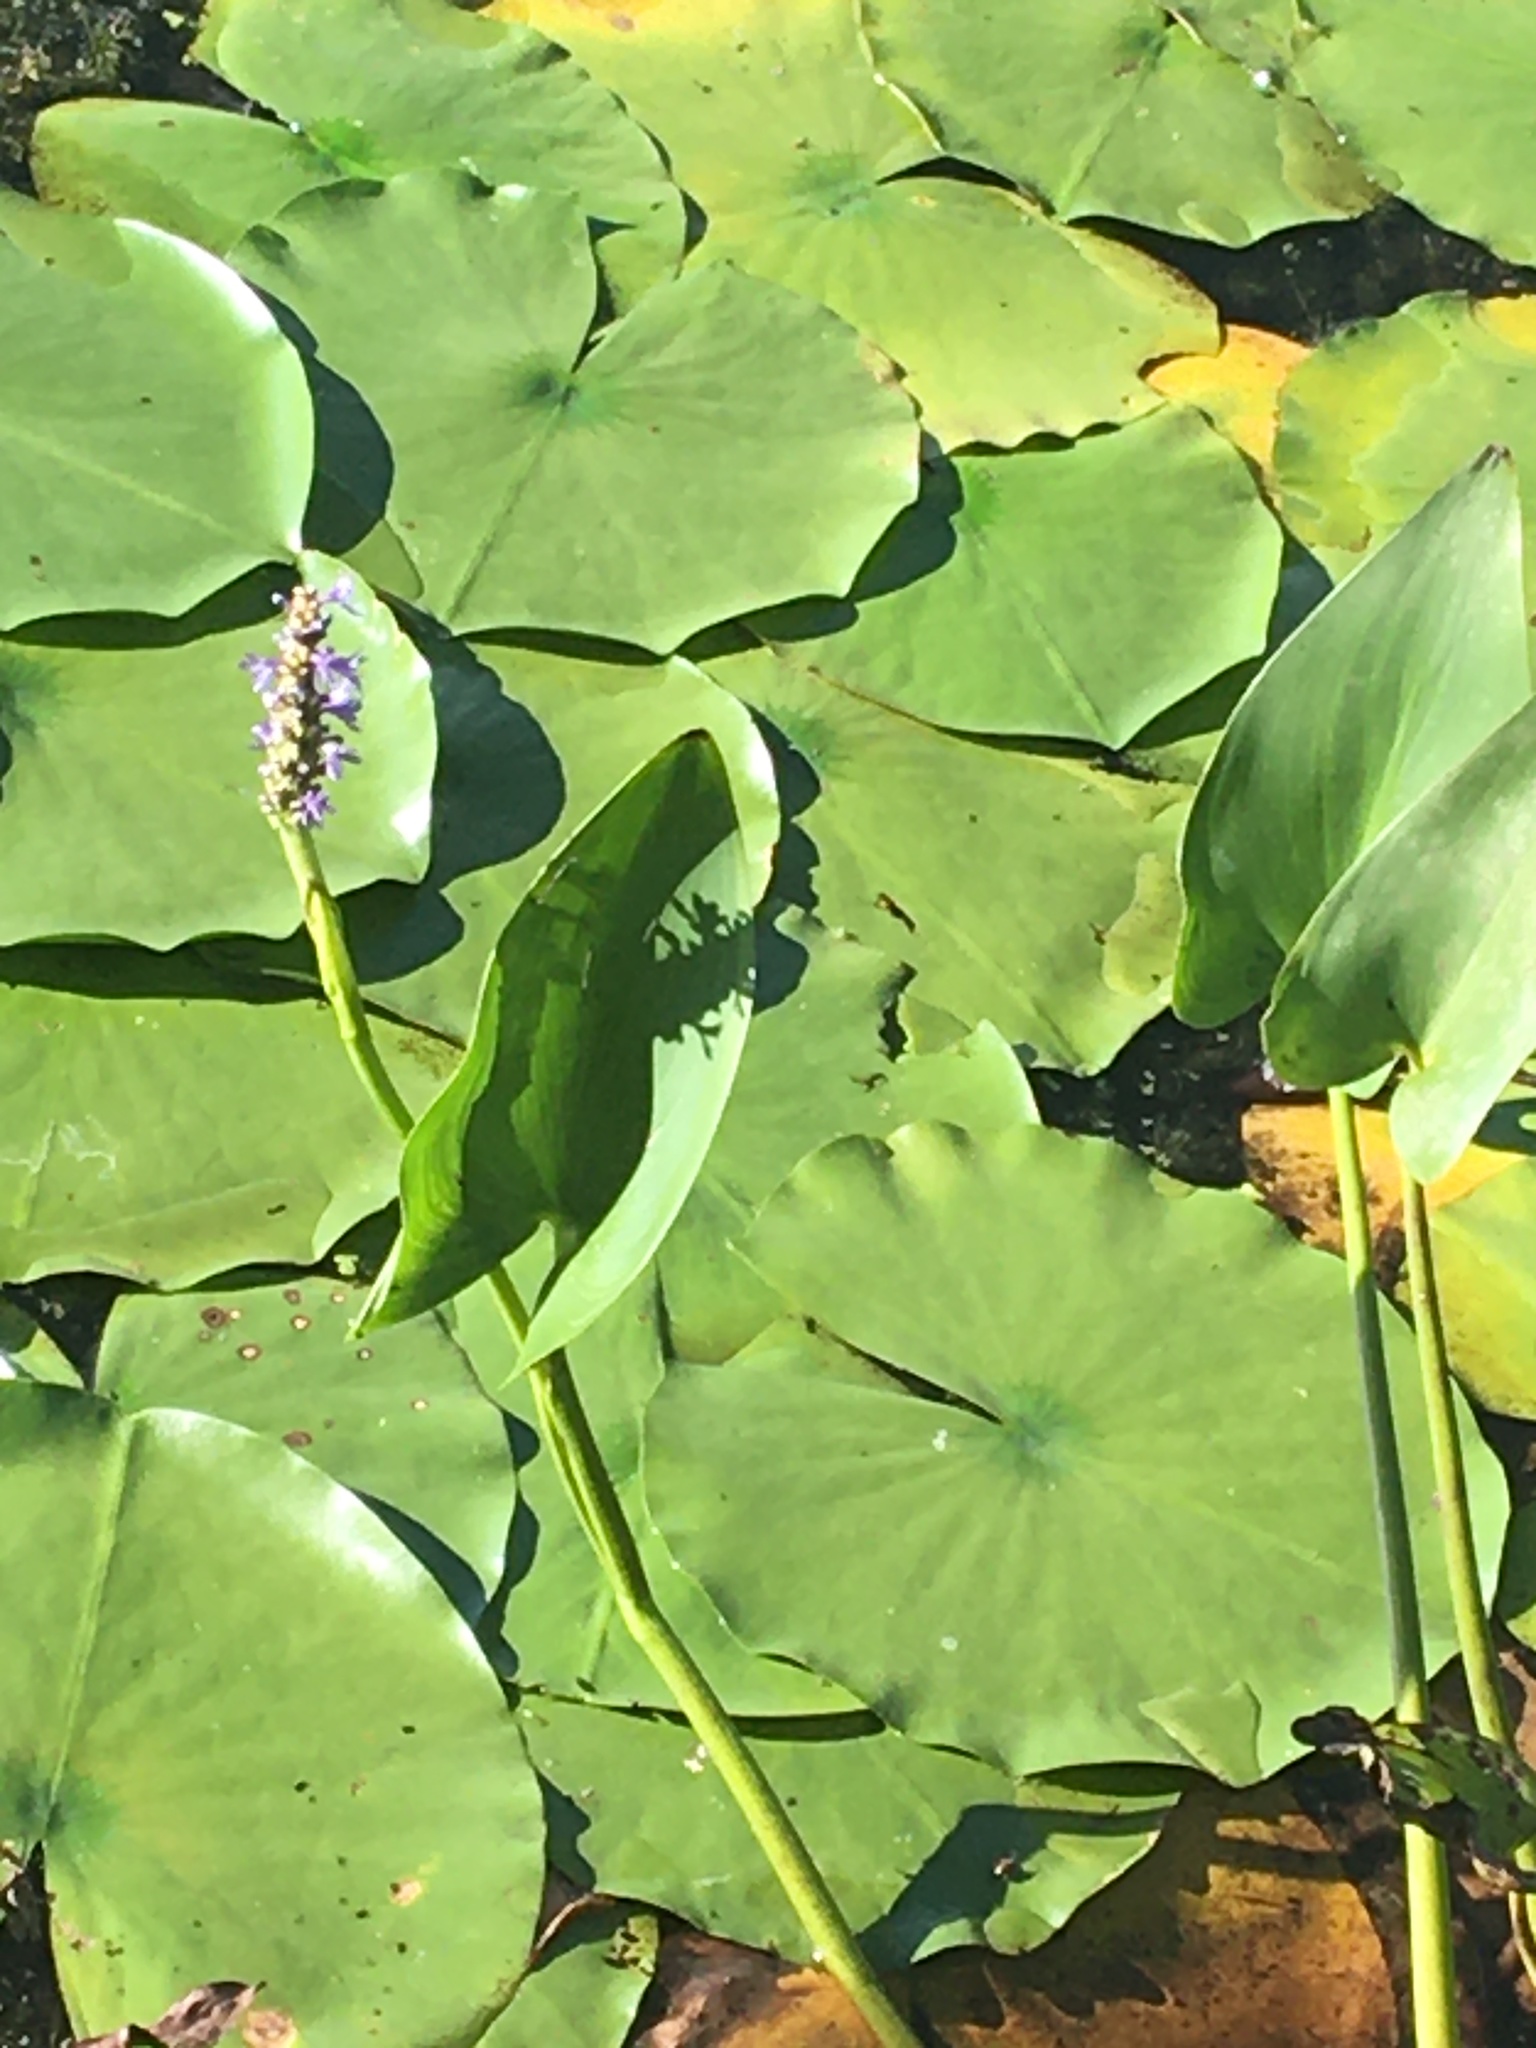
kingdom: Plantae
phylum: Tracheophyta
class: Liliopsida
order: Commelinales
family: Pontederiaceae
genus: Pontederia
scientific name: Pontederia cordata
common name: Pickerelweed
